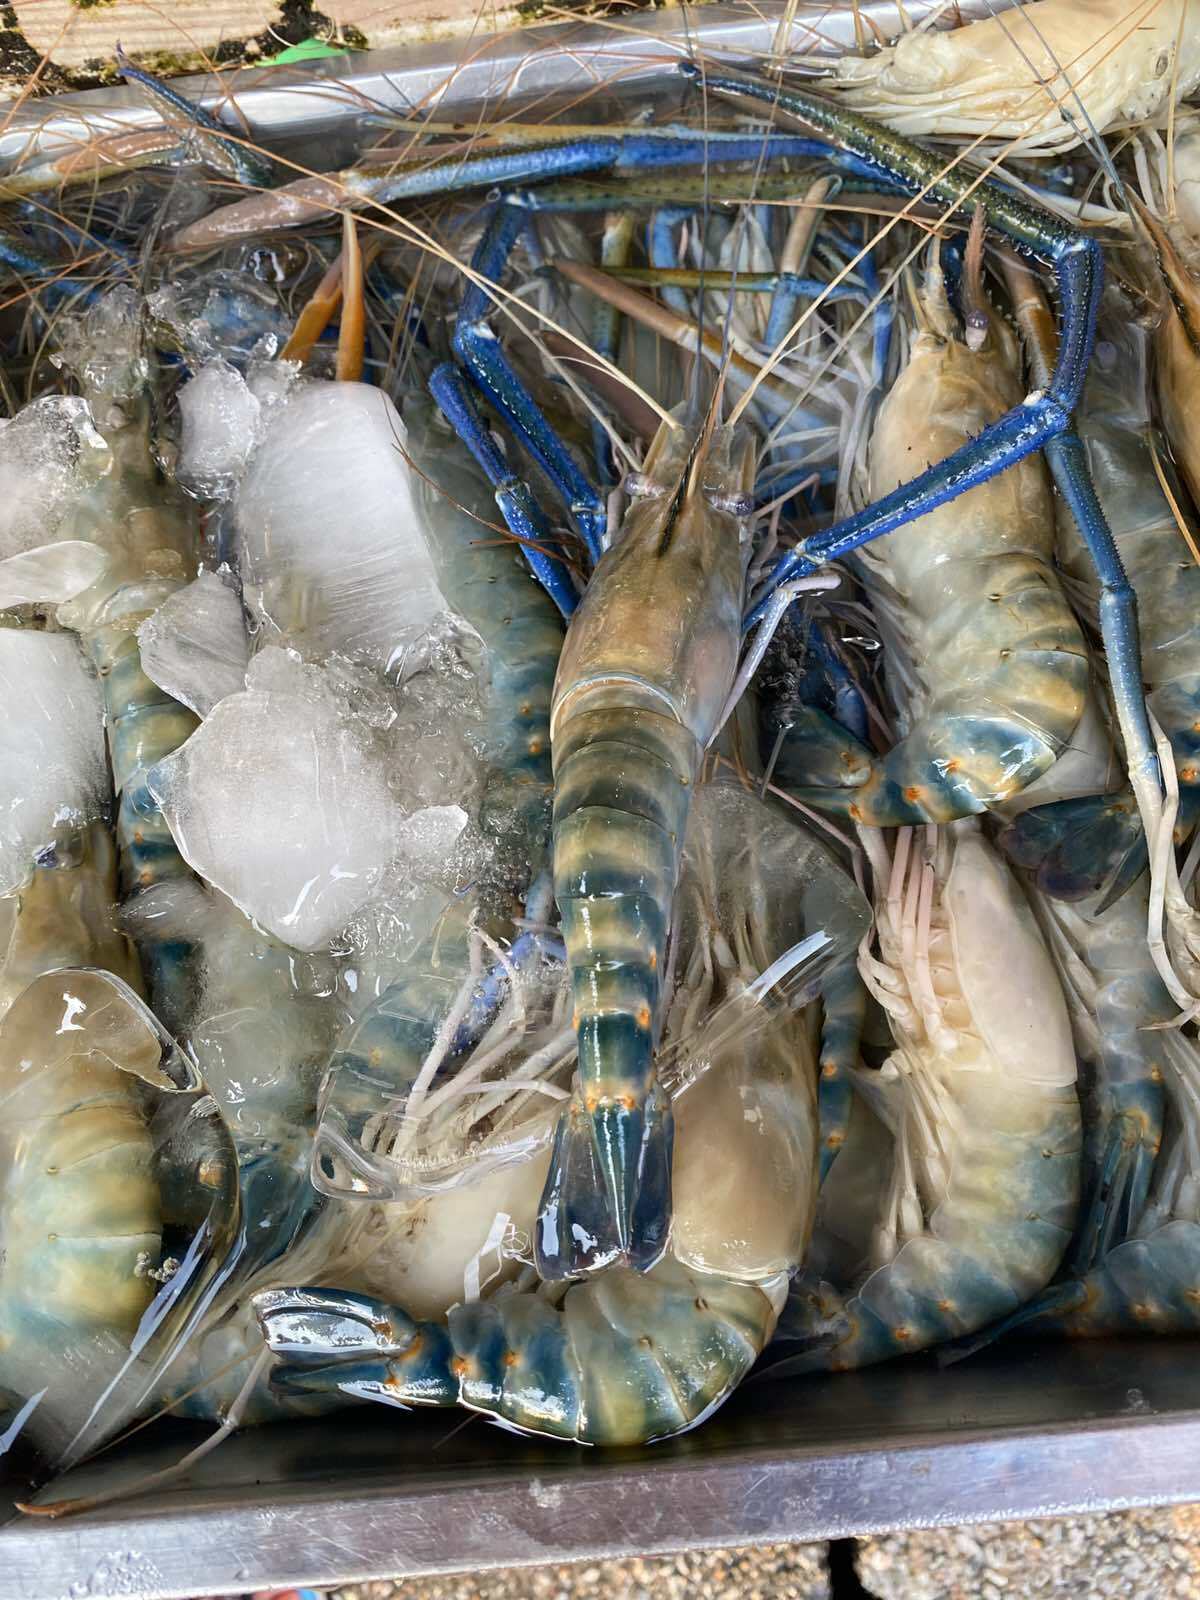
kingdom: Animalia
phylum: Arthropoda
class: Malacostraca
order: Decapoda
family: Palaemonidae
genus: Macrobrachium
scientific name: Macrobrachium rosenbergii
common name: Giant river prawn
